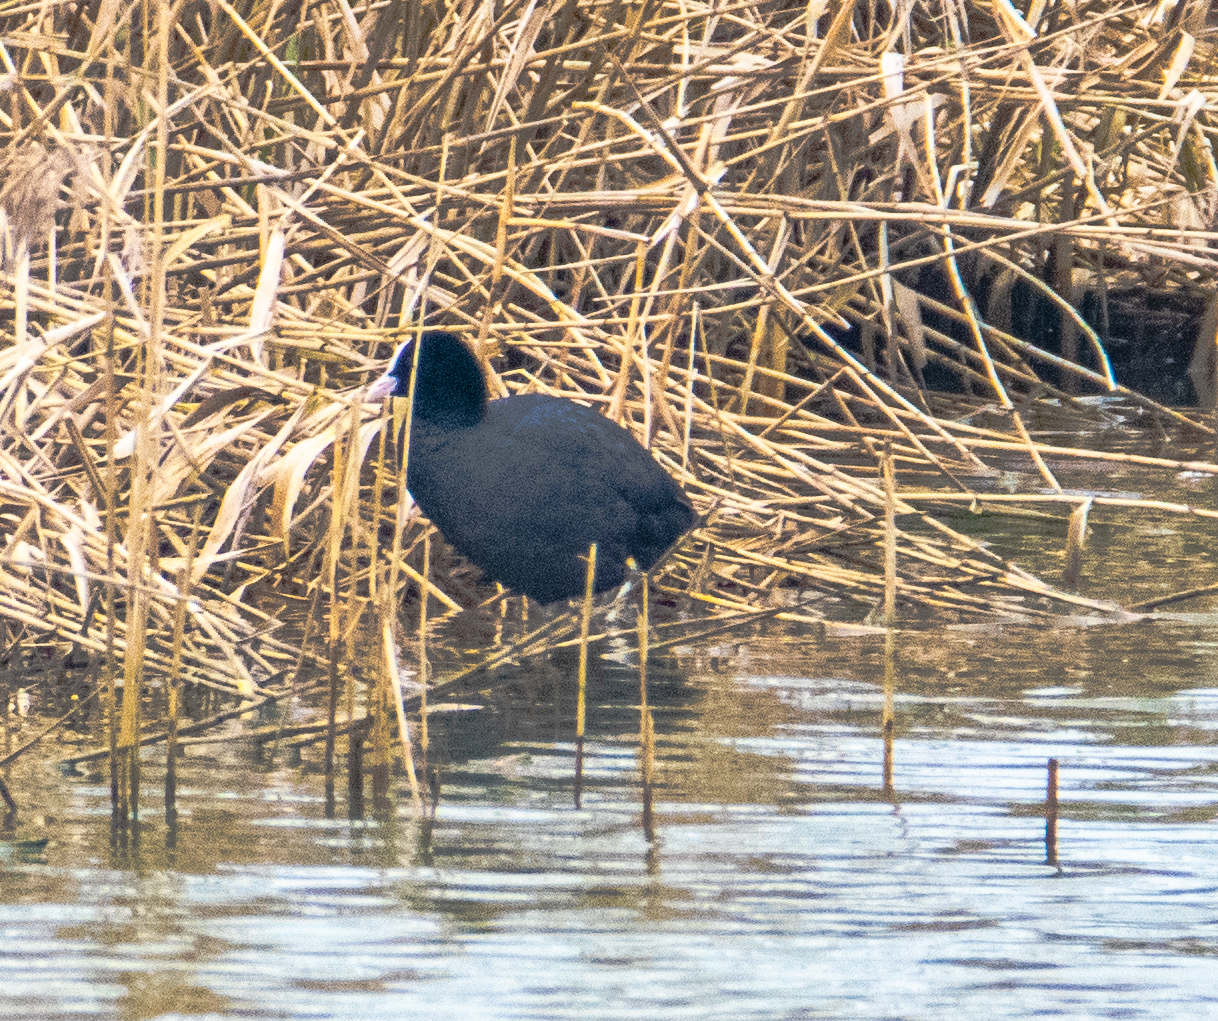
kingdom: Animalia
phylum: Chordata
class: Aves
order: Gruiformes
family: Rallidae
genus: Fulica
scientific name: Fulica atra
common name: Eurasian coot
